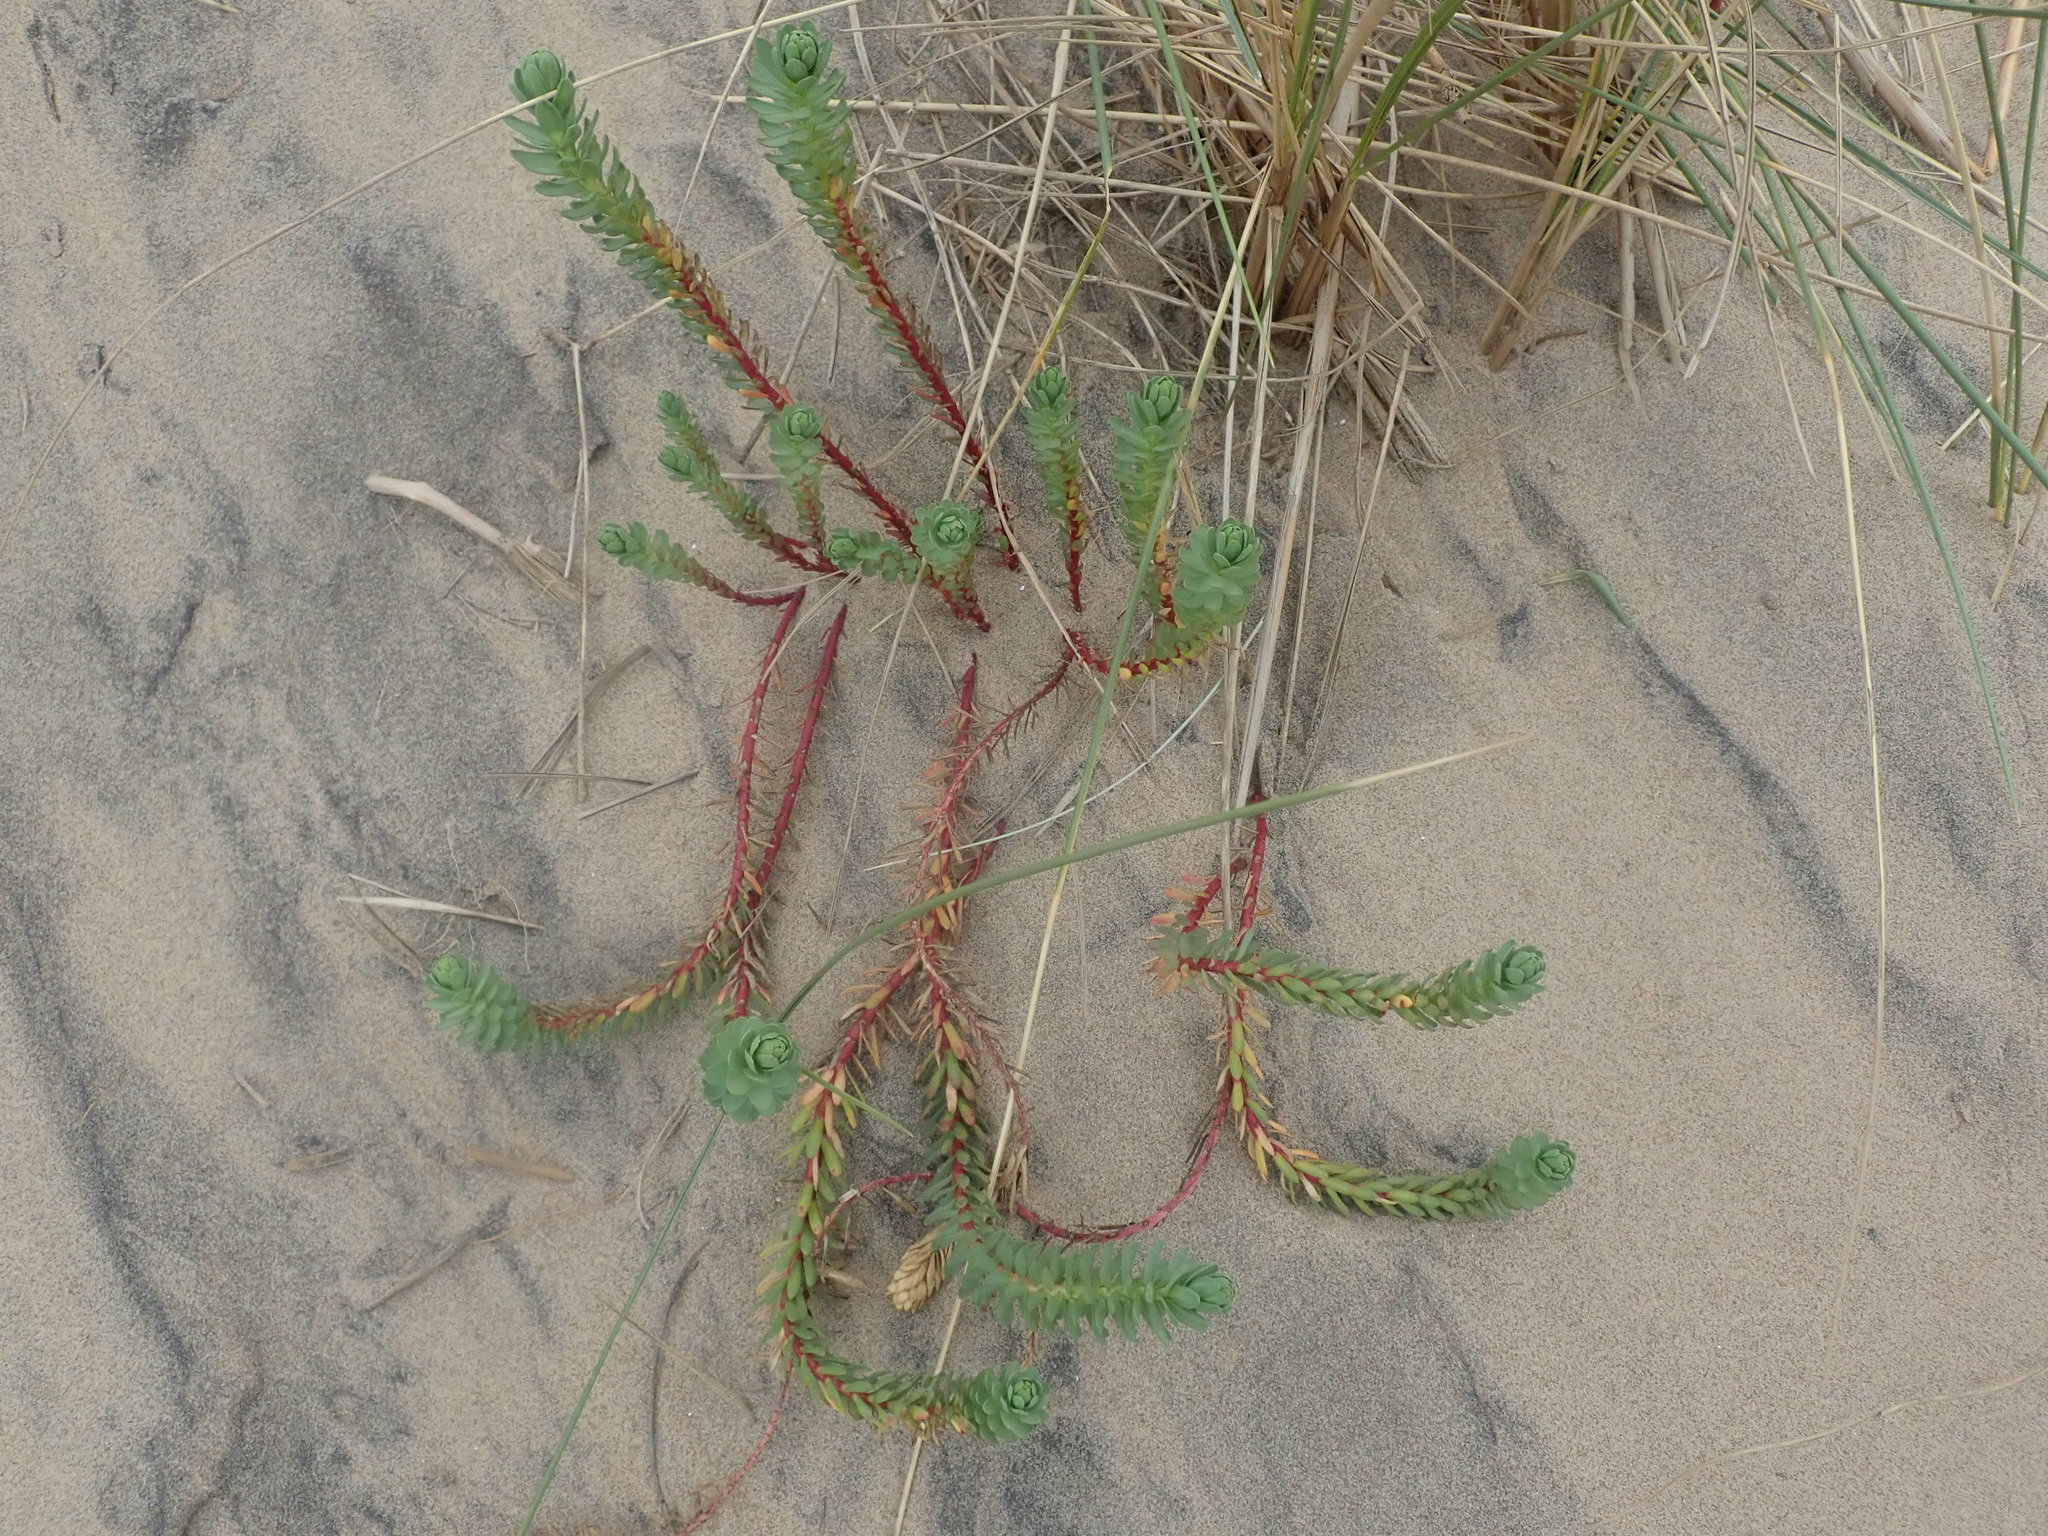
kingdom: Plantae
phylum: Tracheophyta
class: Magnoliopsida
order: Malpighiales
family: Euphorbiaceae
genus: Euphorbia
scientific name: Euphorbia paralias
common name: Sea spurge
